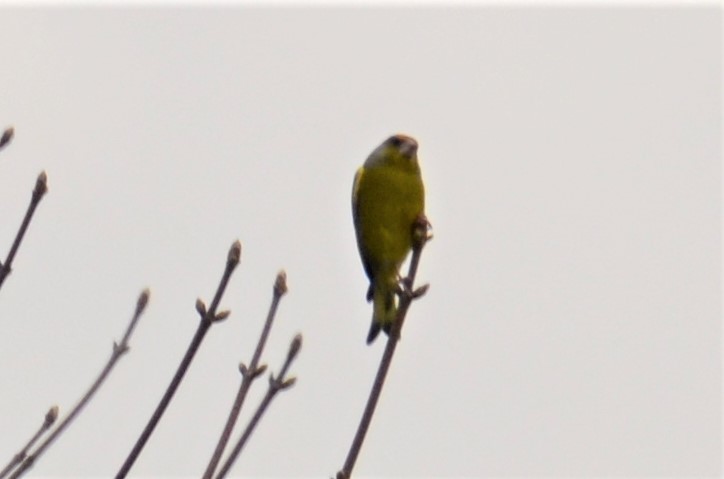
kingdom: Plantae
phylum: Tracheophyta
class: Liliopsida
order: Poales
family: Poaceae
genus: Chloris
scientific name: Chloris chloris
